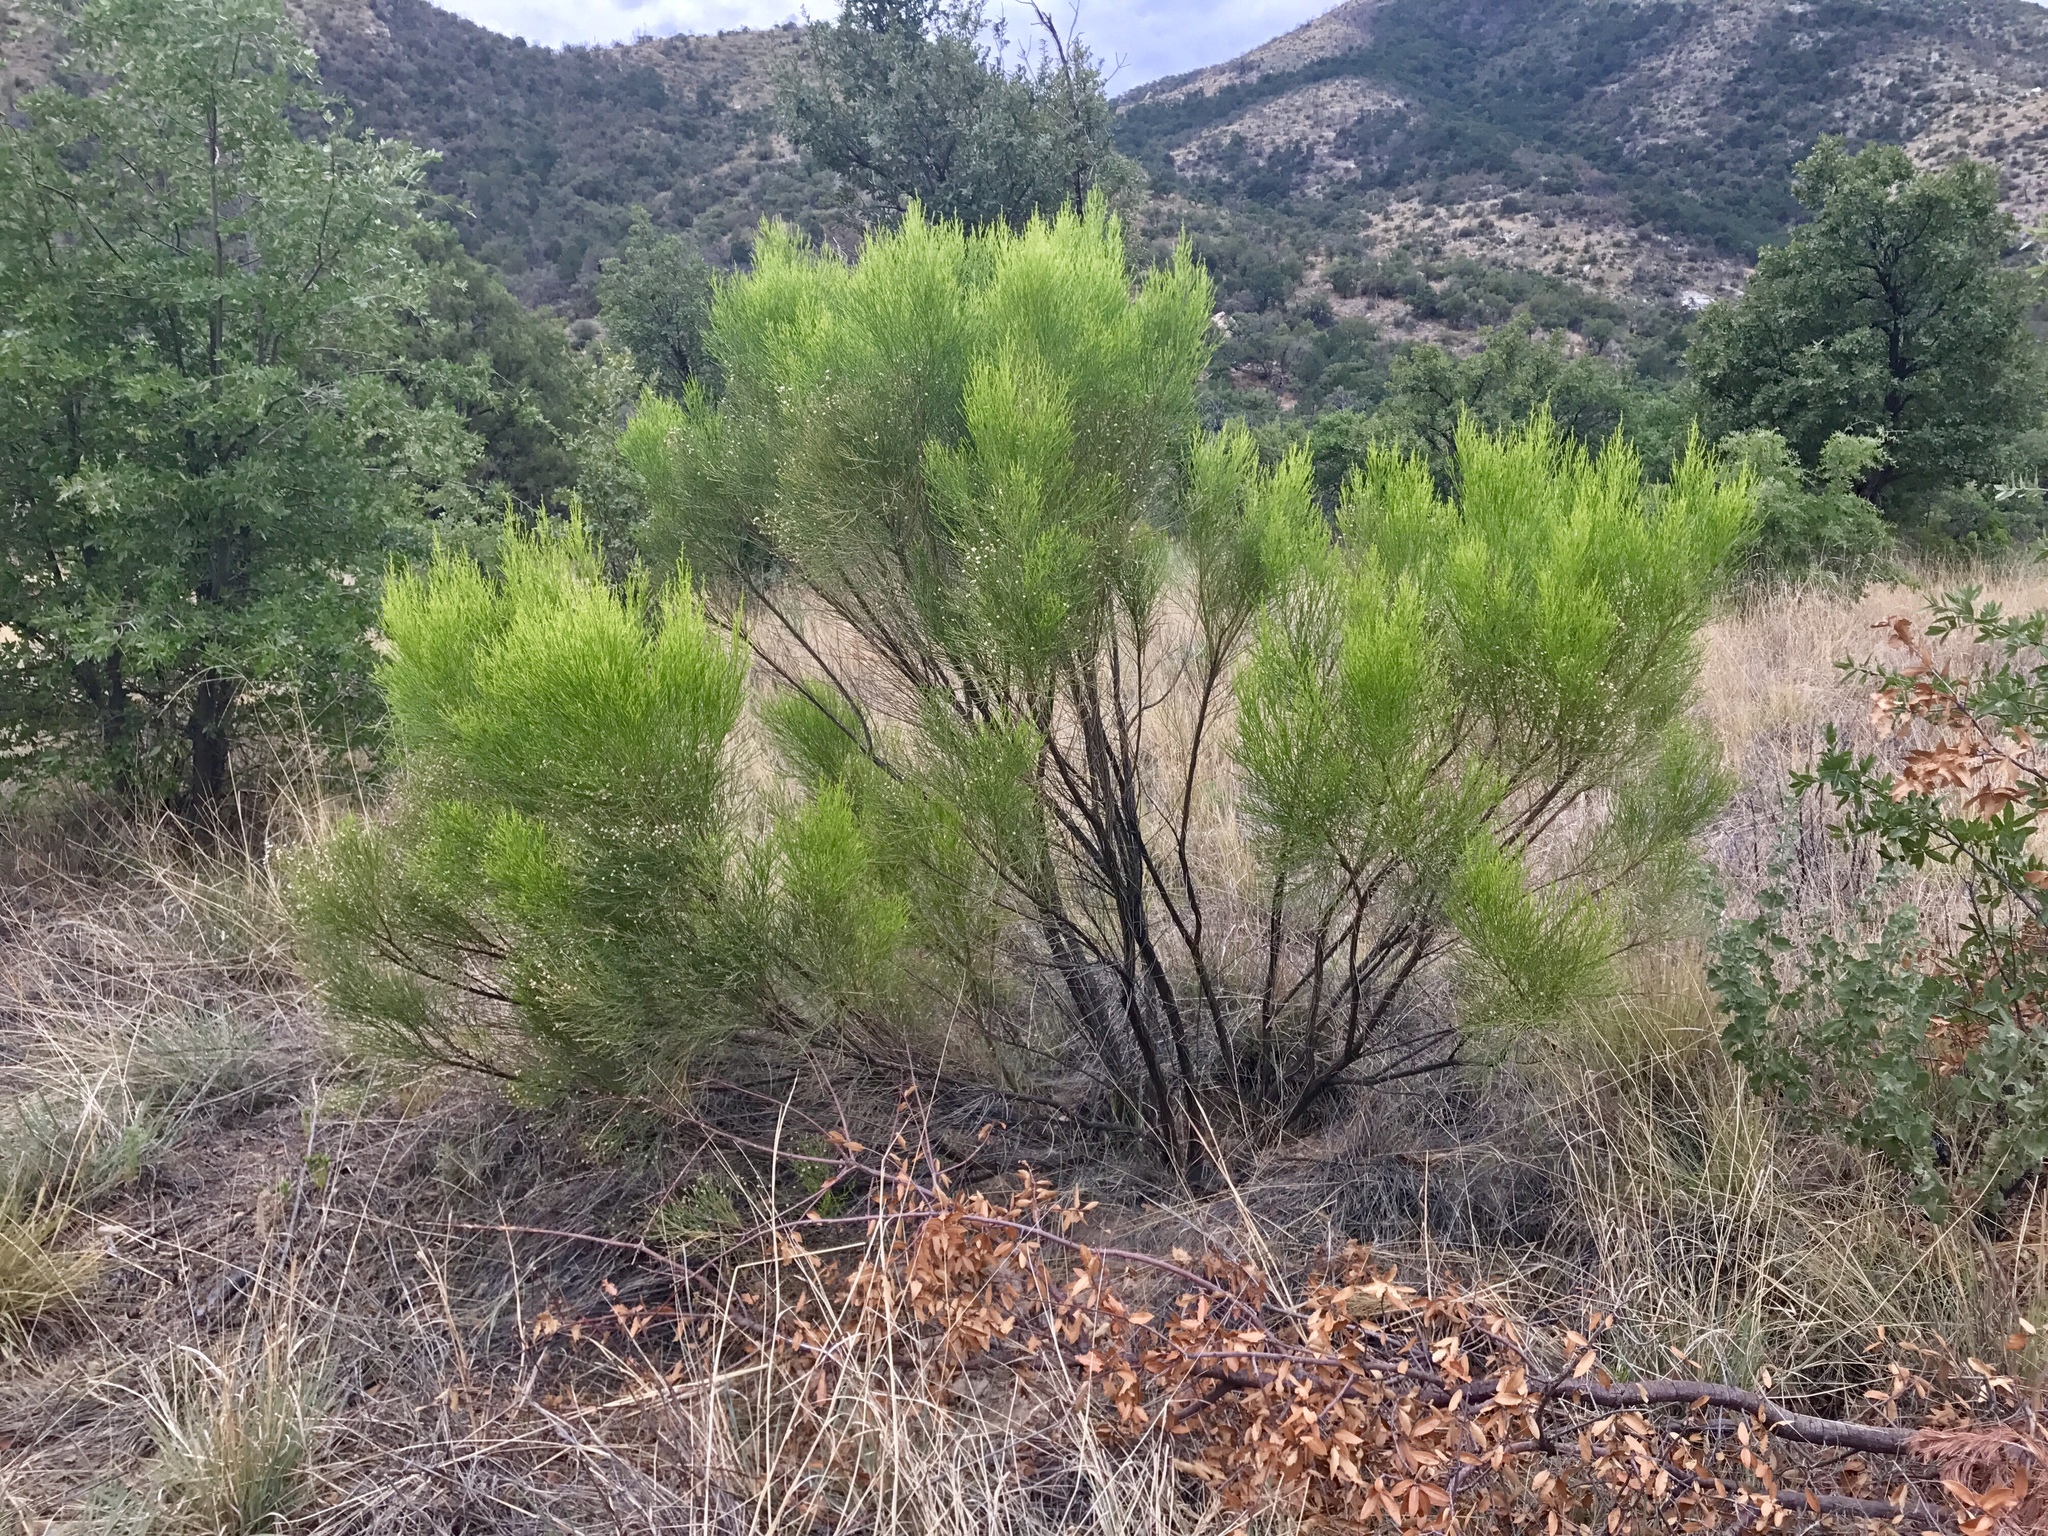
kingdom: Plantae
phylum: Tracheophyta
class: Magnoliopsida
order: Asterales
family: Asteraceae
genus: Baccharis
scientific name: Baccharis sarothroides
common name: Desert-broom
